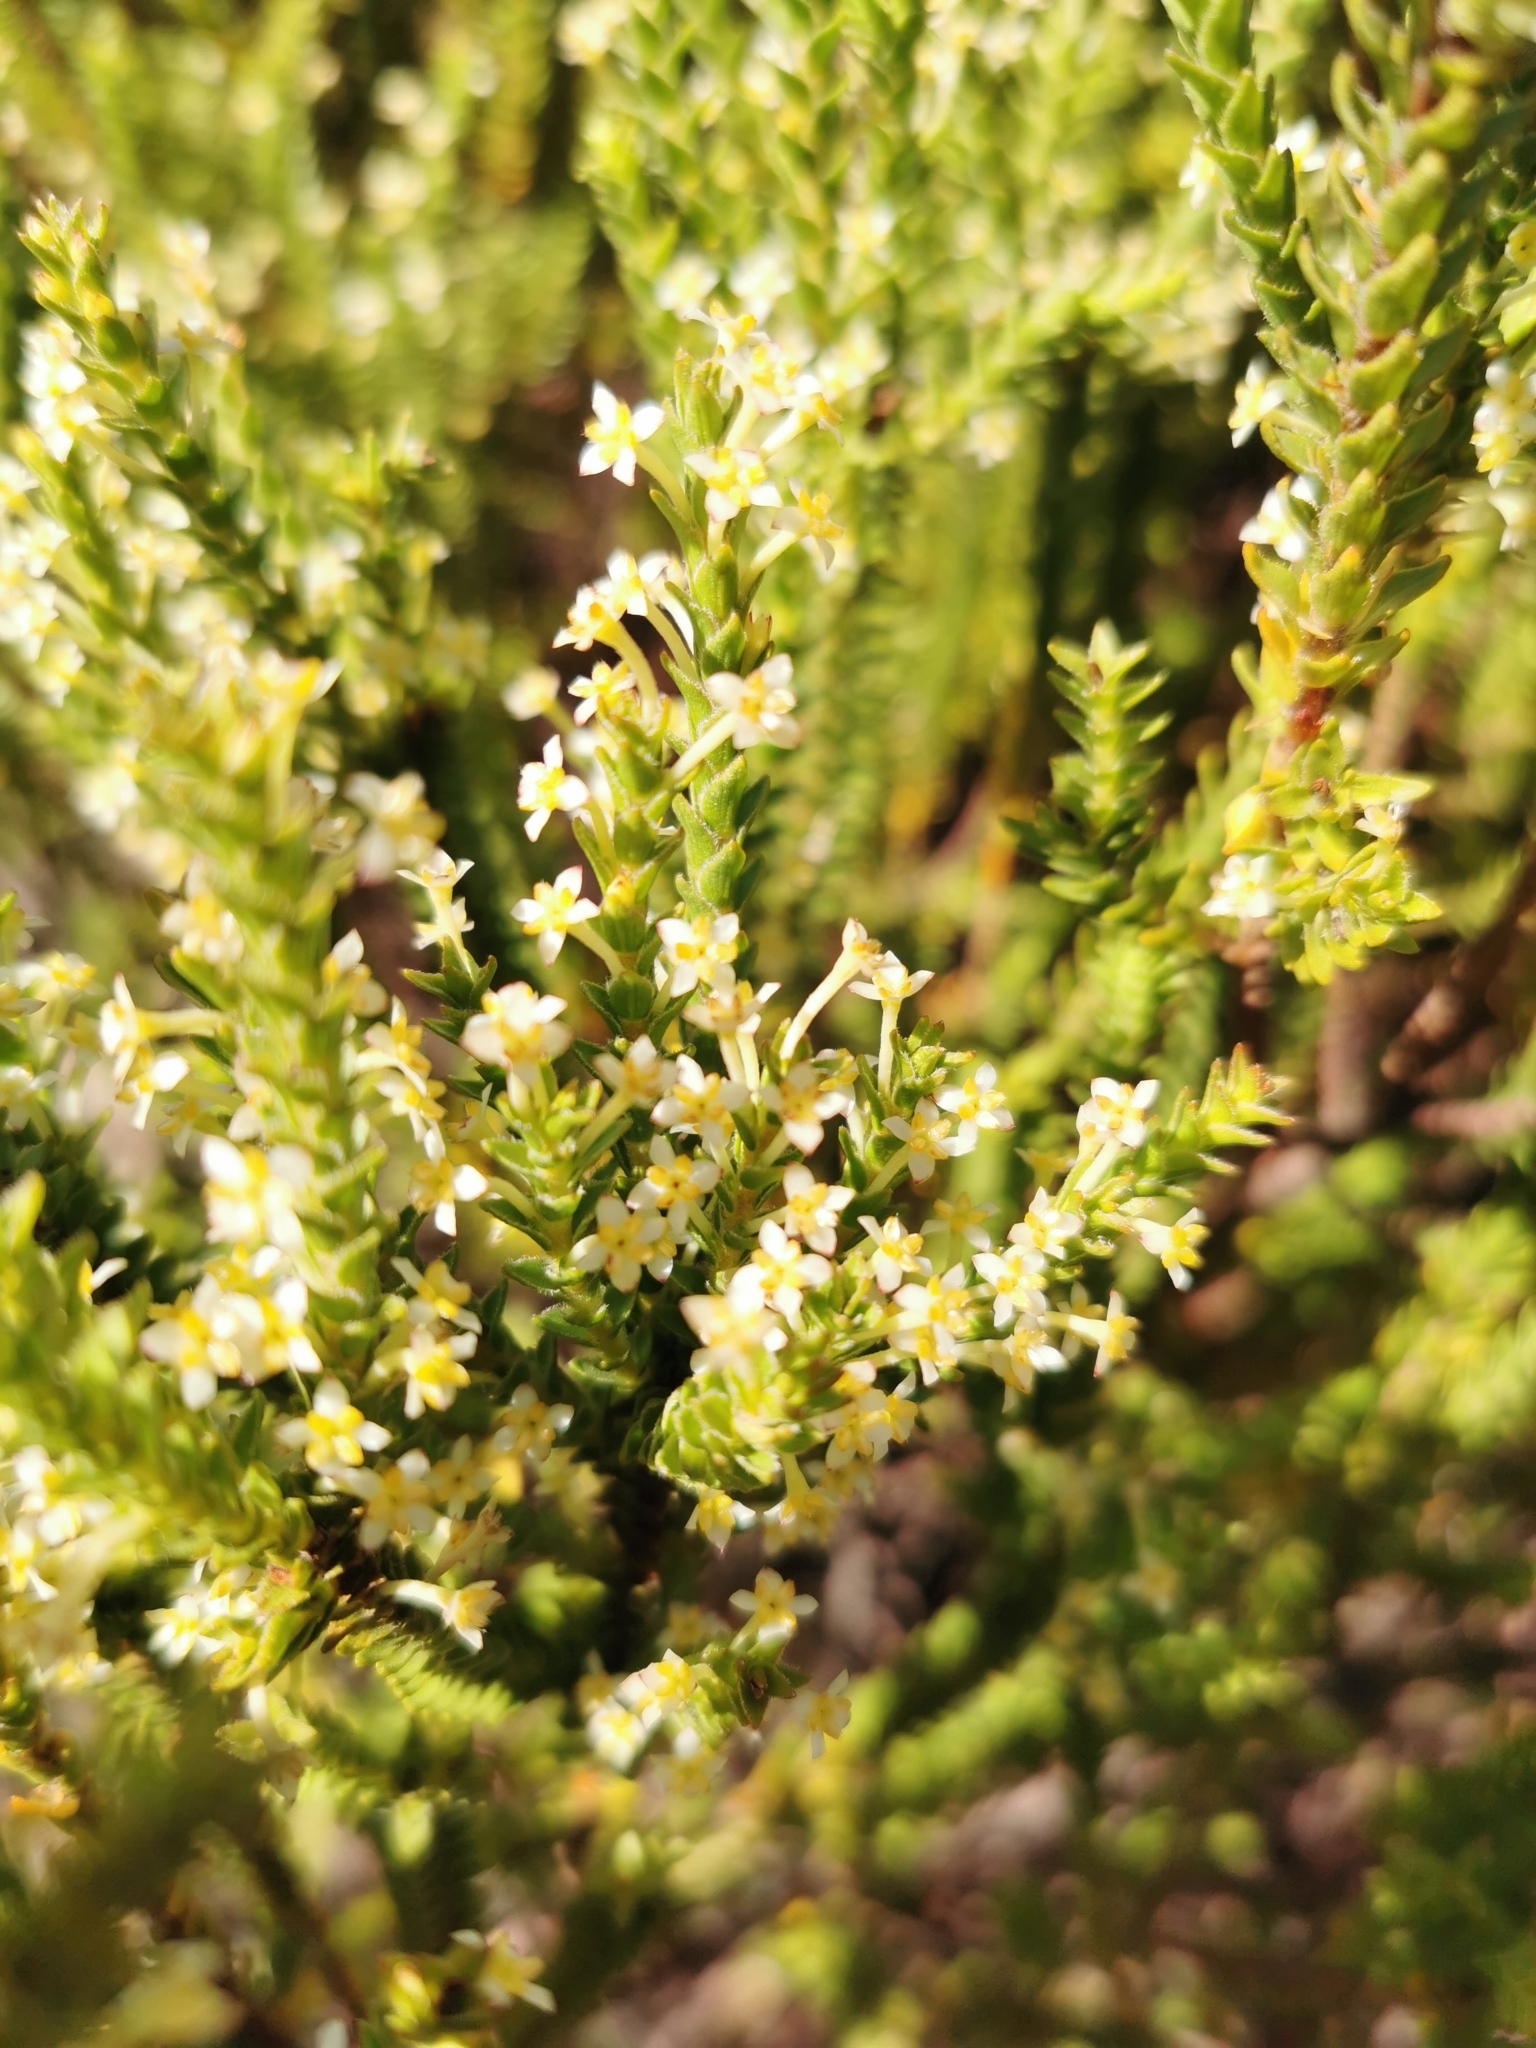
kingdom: Plantae
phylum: Tracheophyta
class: Magnoliopsida
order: Malvales
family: Thymelaeaceae
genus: Struthiola
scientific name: Struthiola striata
